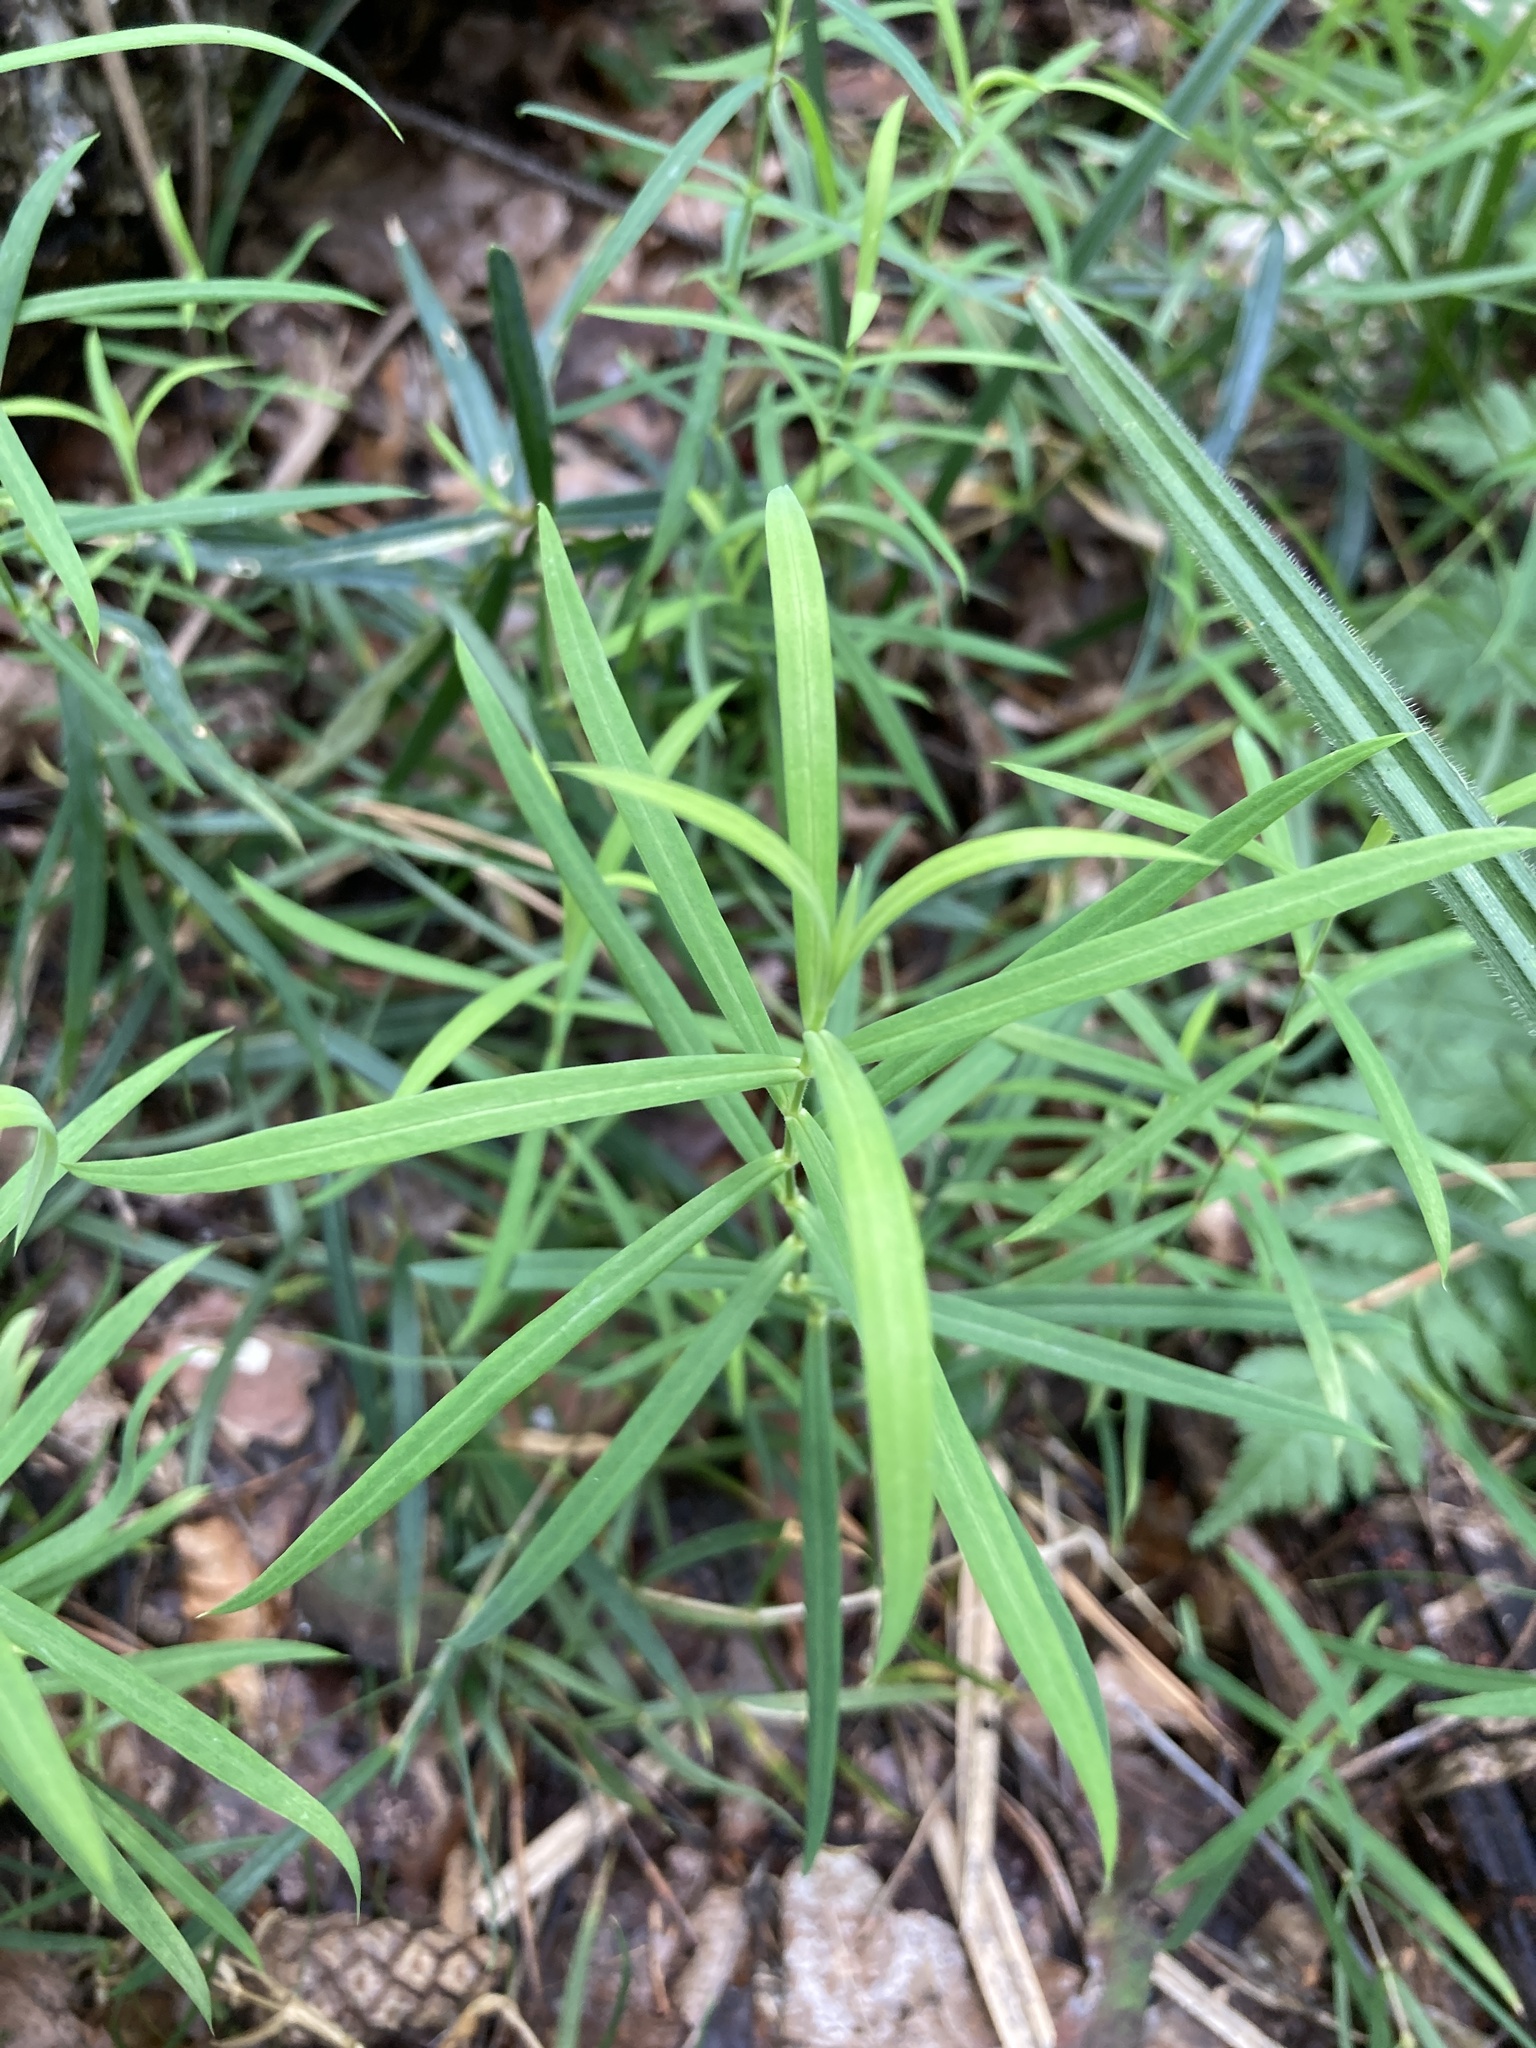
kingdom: Plantae
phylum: Tracheophyta
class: Magnoliopsida
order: Caryophyllales
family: Caryophyllaceae
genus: Rabelera
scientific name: Rabelera holostea
